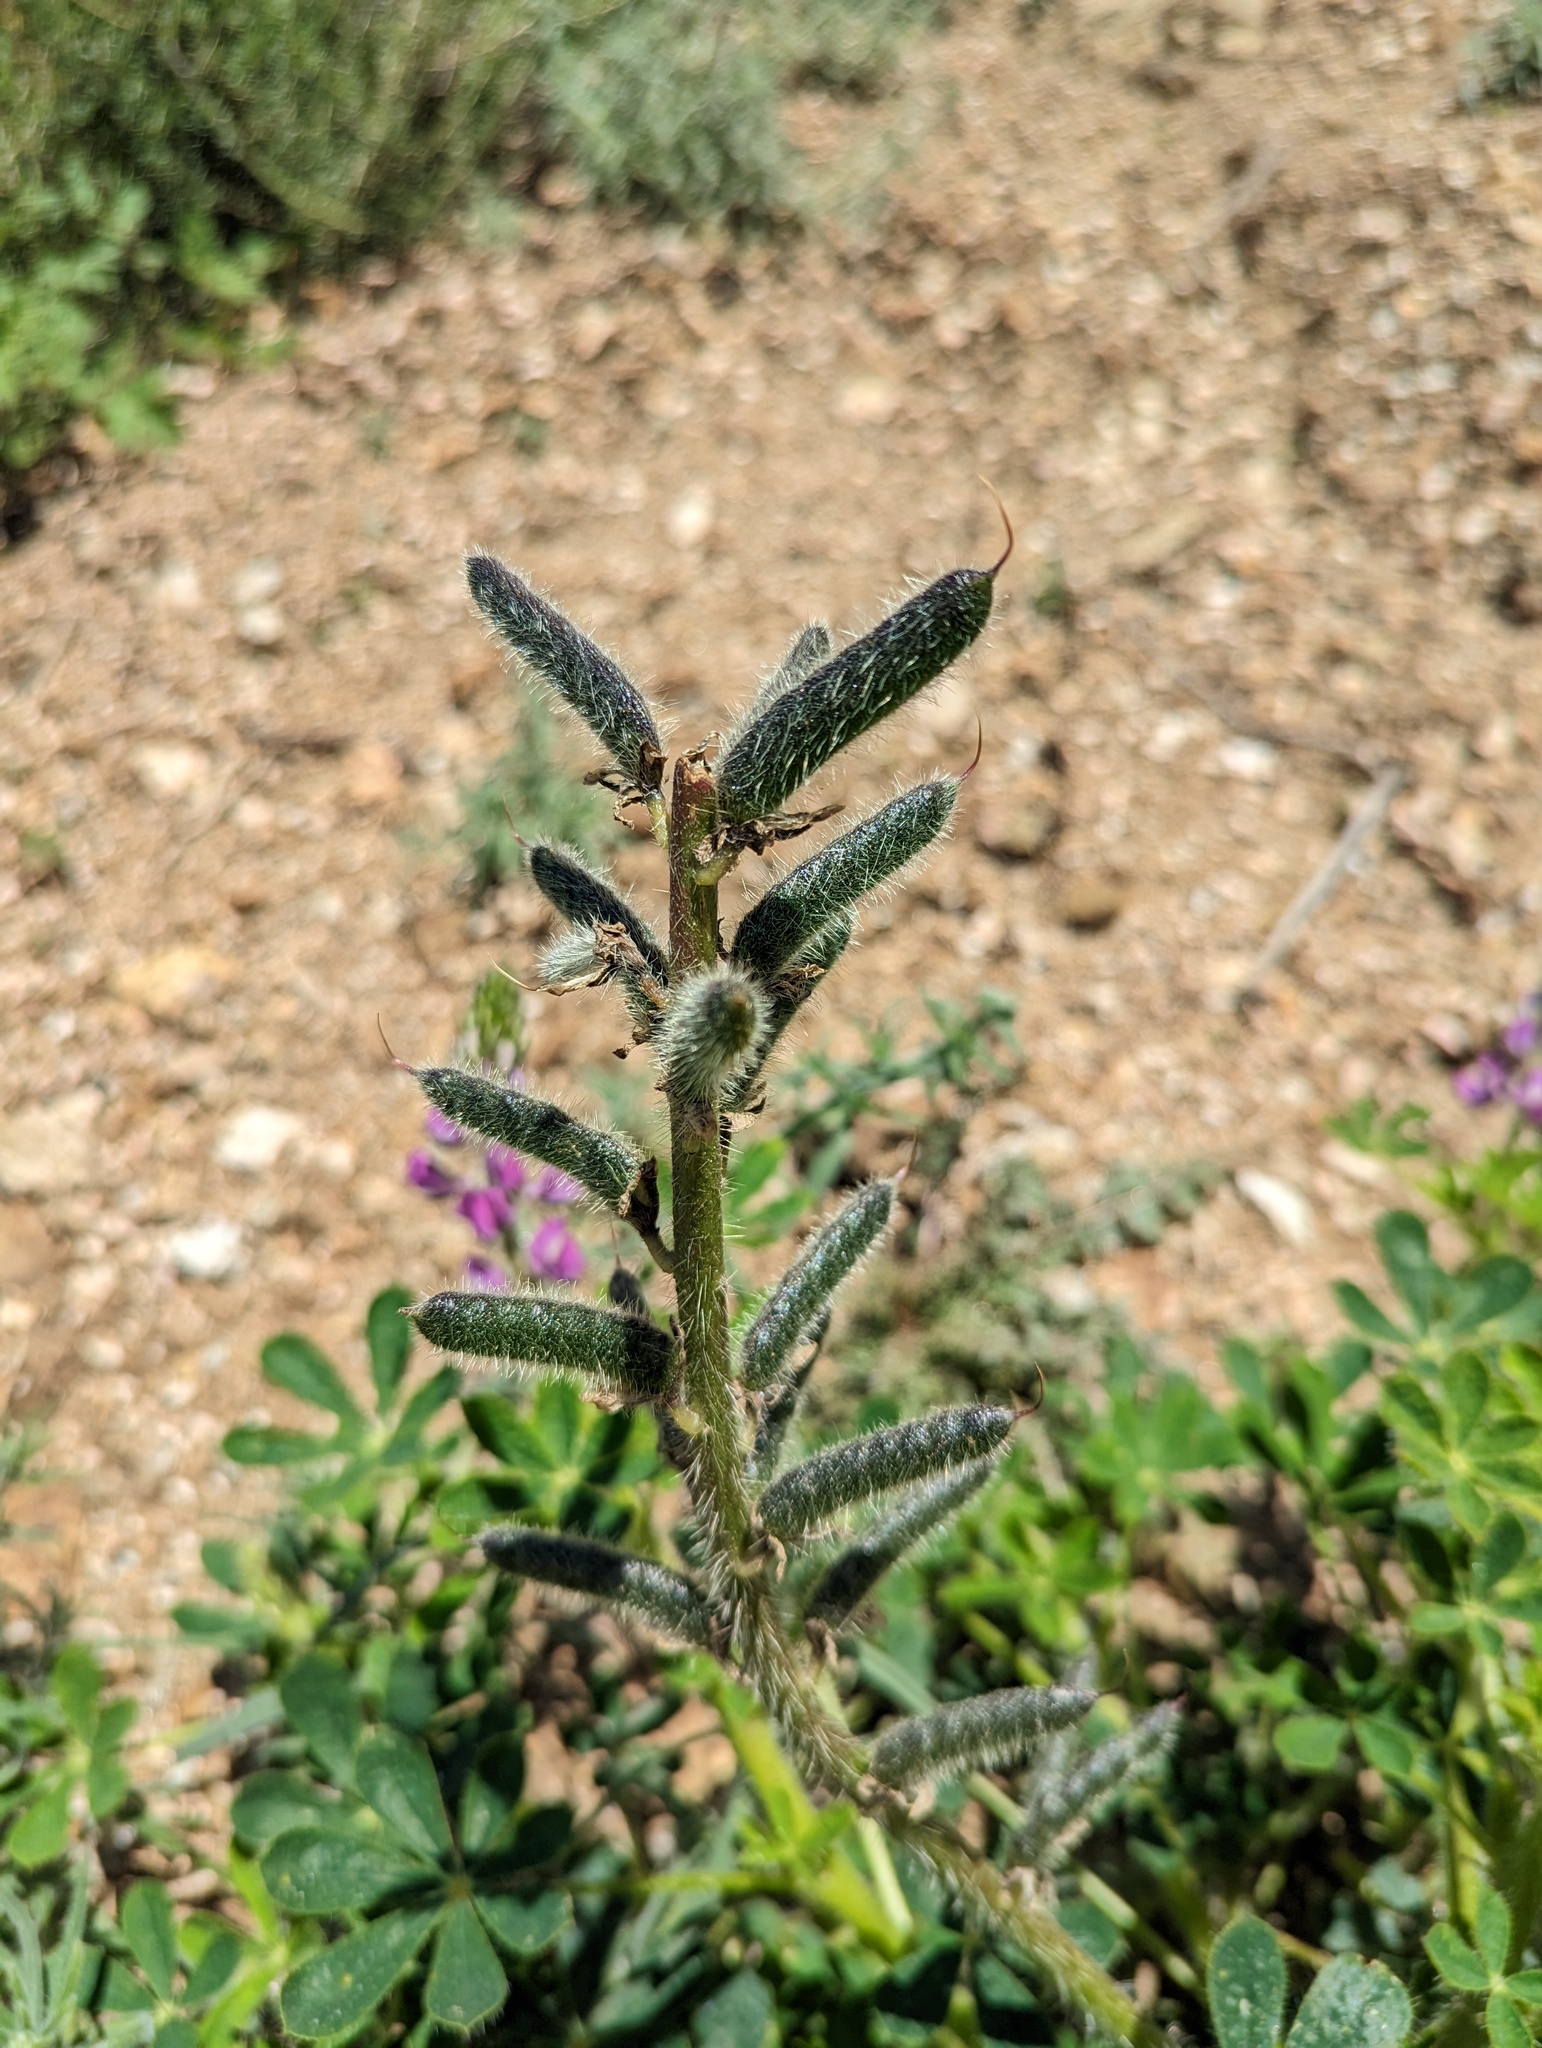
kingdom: Plantae
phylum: Tracheophyta
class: Magnoliopsida
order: Fabales
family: Fabaceae
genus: Lupinus
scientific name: Lupinus hirsutissimus
